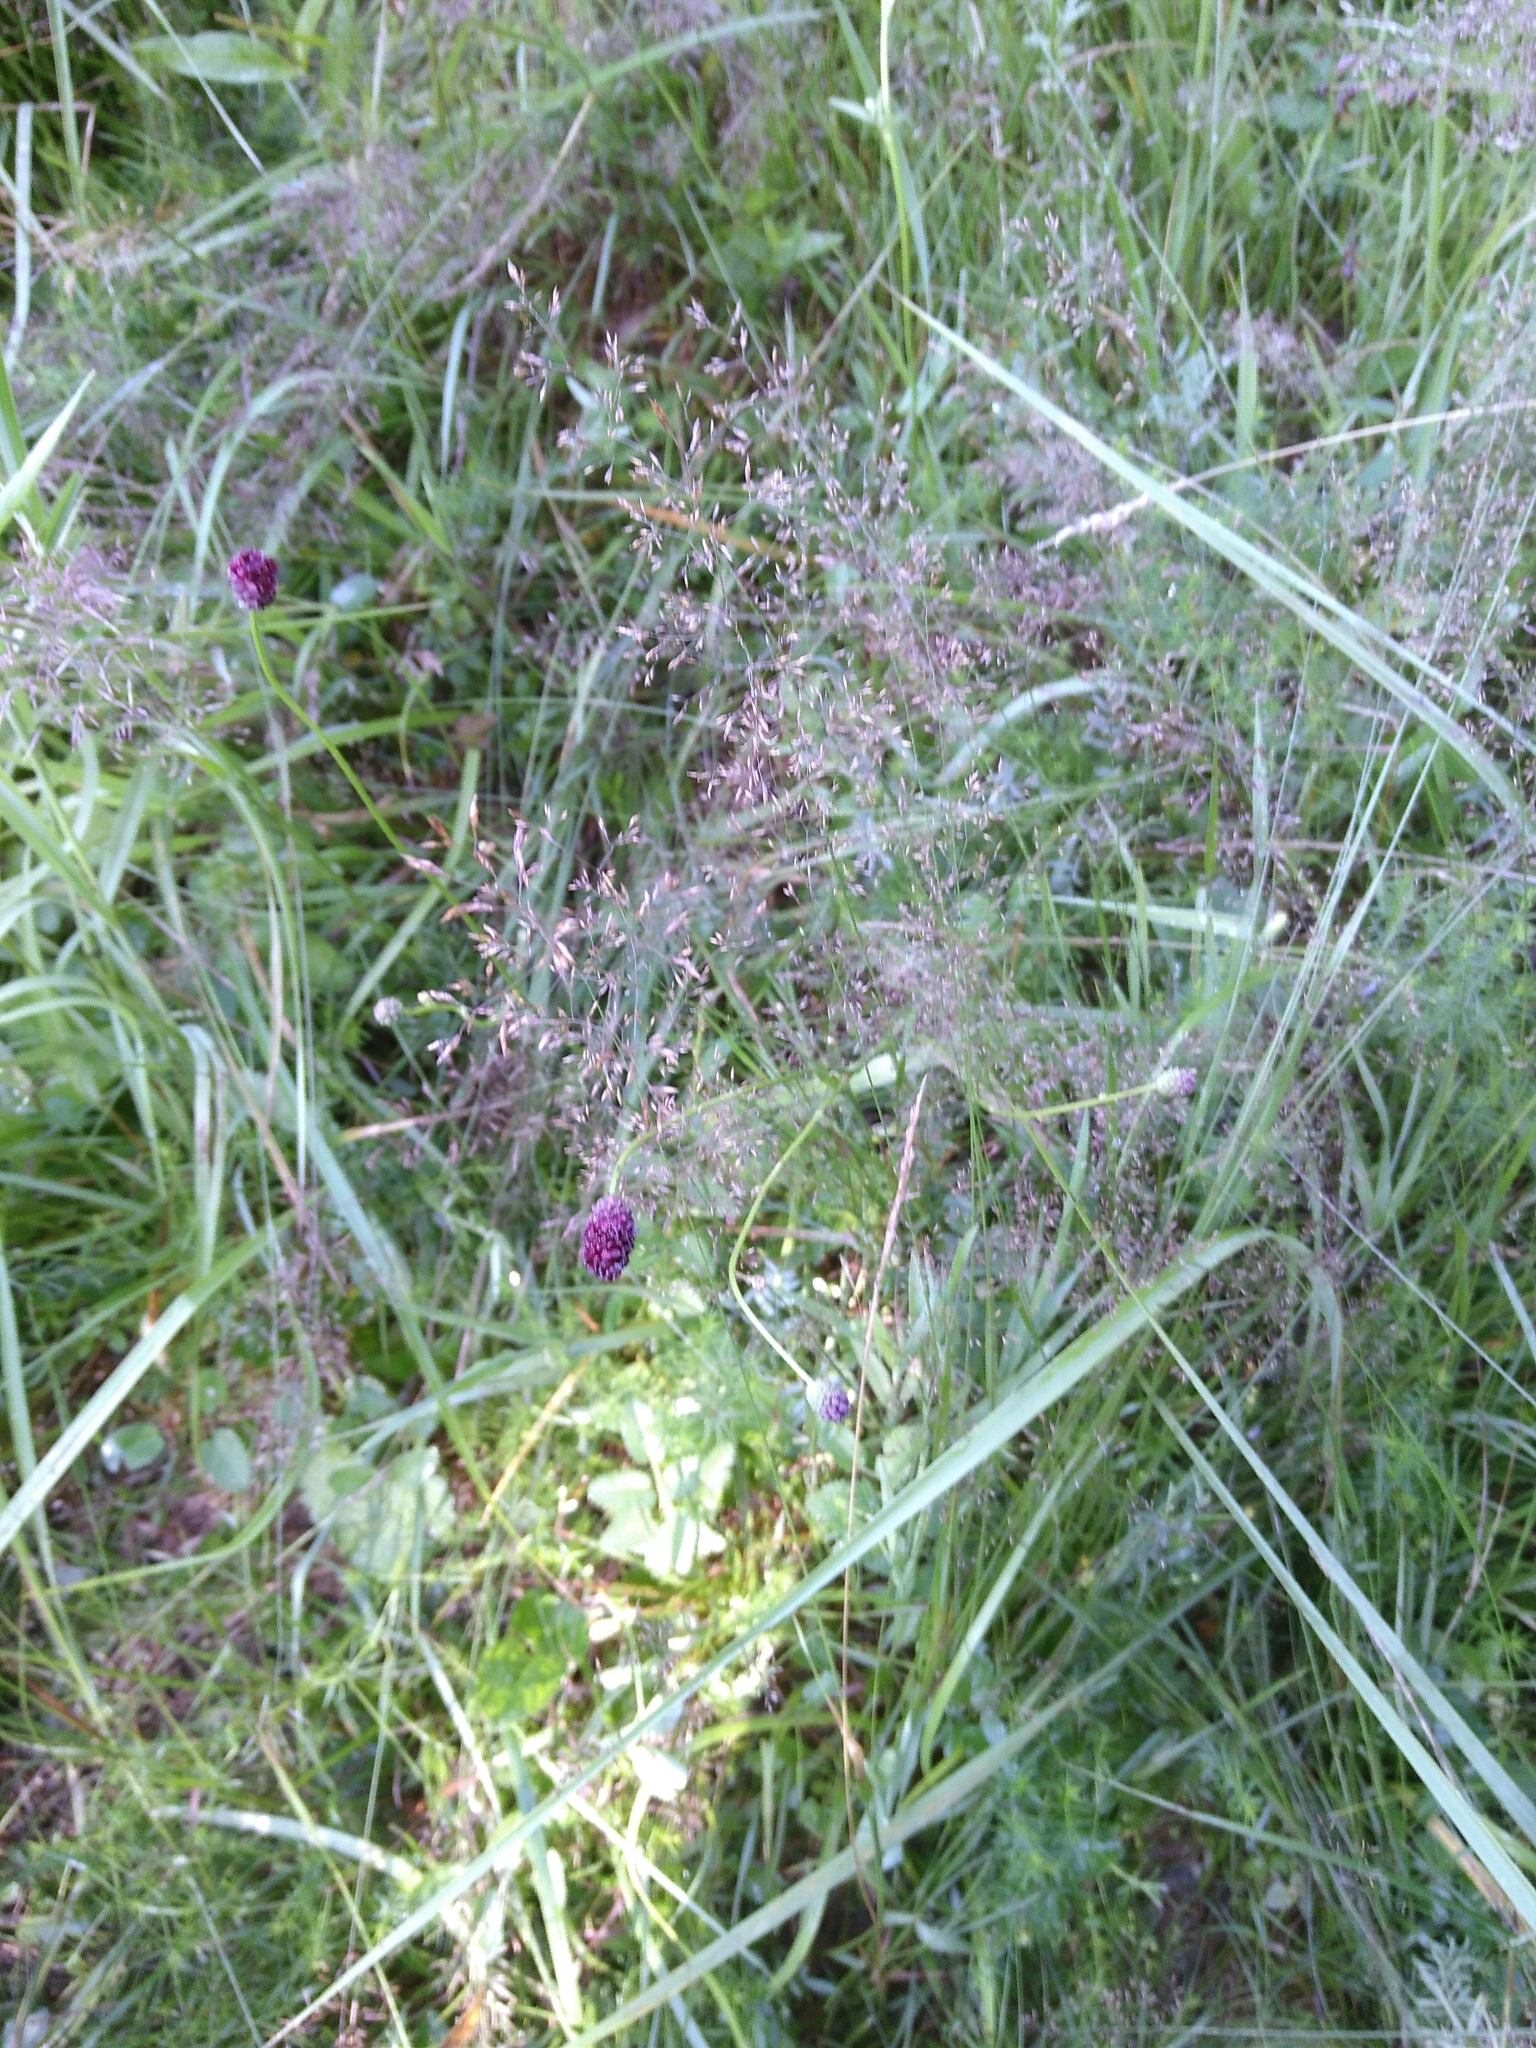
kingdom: Plantae
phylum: Tracheophyta
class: Magnoliopsida
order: Rosales
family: Rosaceae
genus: Sanguisorba
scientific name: Sanguisorba officinalis
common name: Great burnet
